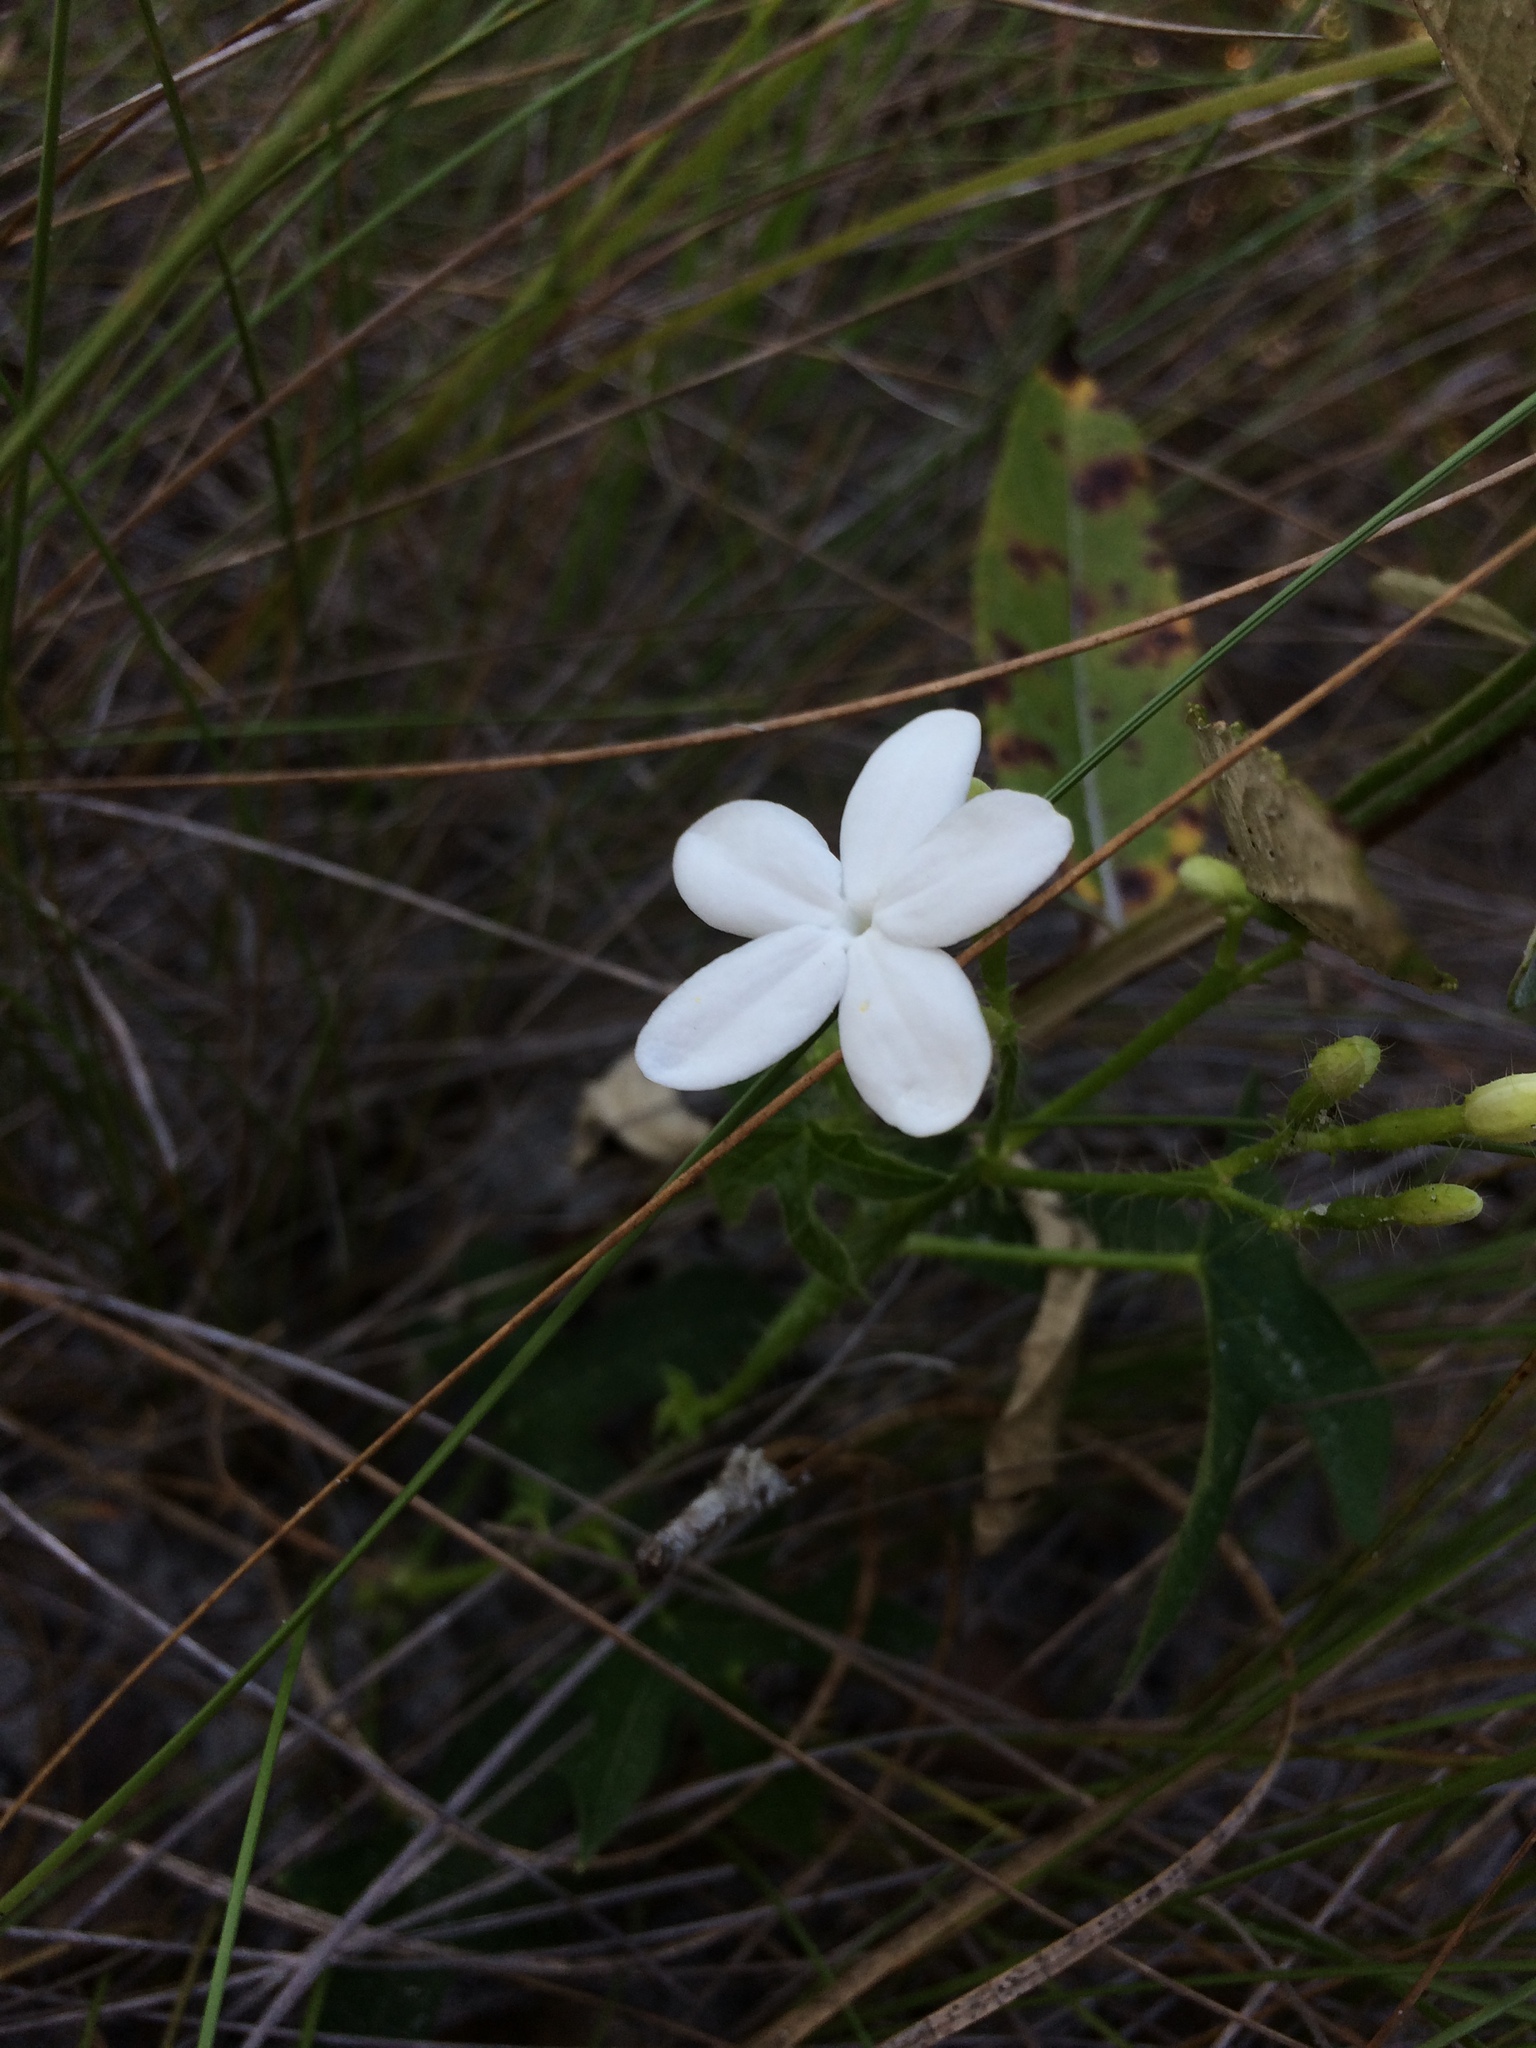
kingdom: Plantae
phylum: Tracheophyta
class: Magnoliopsida
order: Malpighiales
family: Euphorbiaceae
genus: Cnidoscolus
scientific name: Cnidoscolus stimulosus
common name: Bull-nettle
